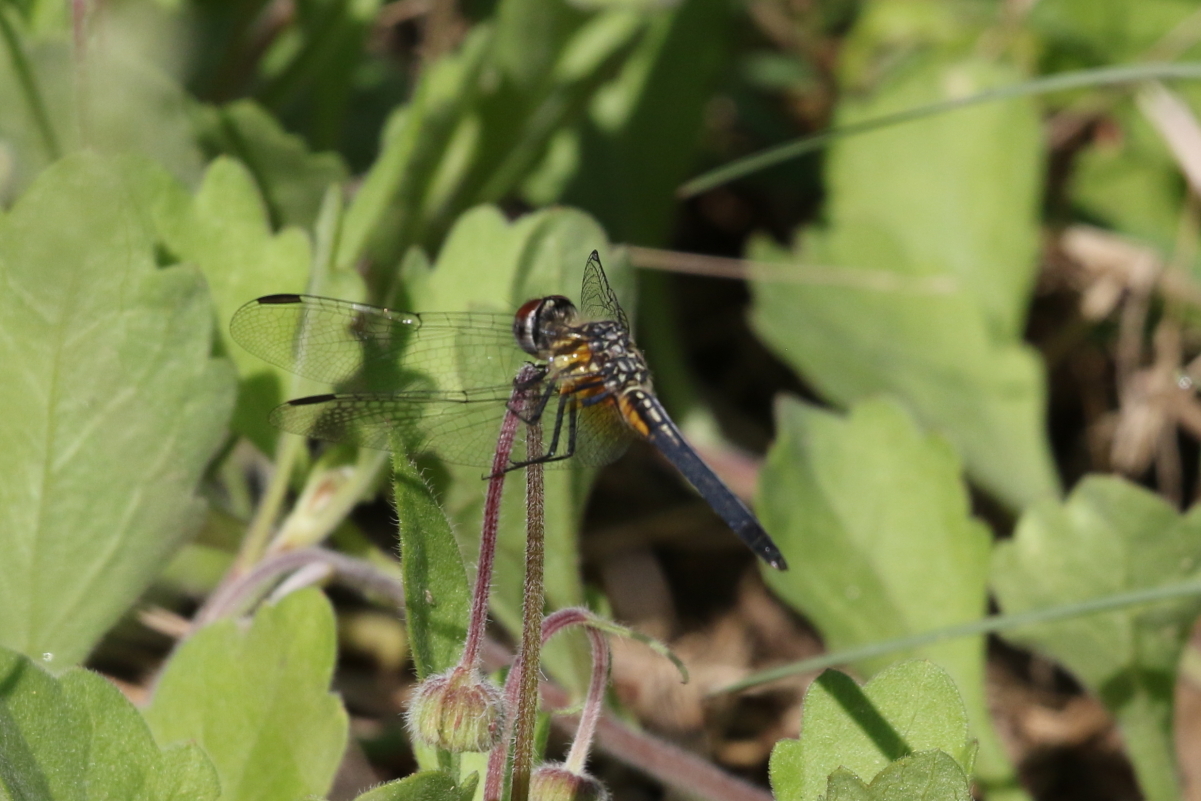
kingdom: Animalia
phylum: Arthropoda
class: Insecta
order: Odonata
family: Libellulidae
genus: Pachydiplax
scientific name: Pachydiplax longipennis
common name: Blue dasher
